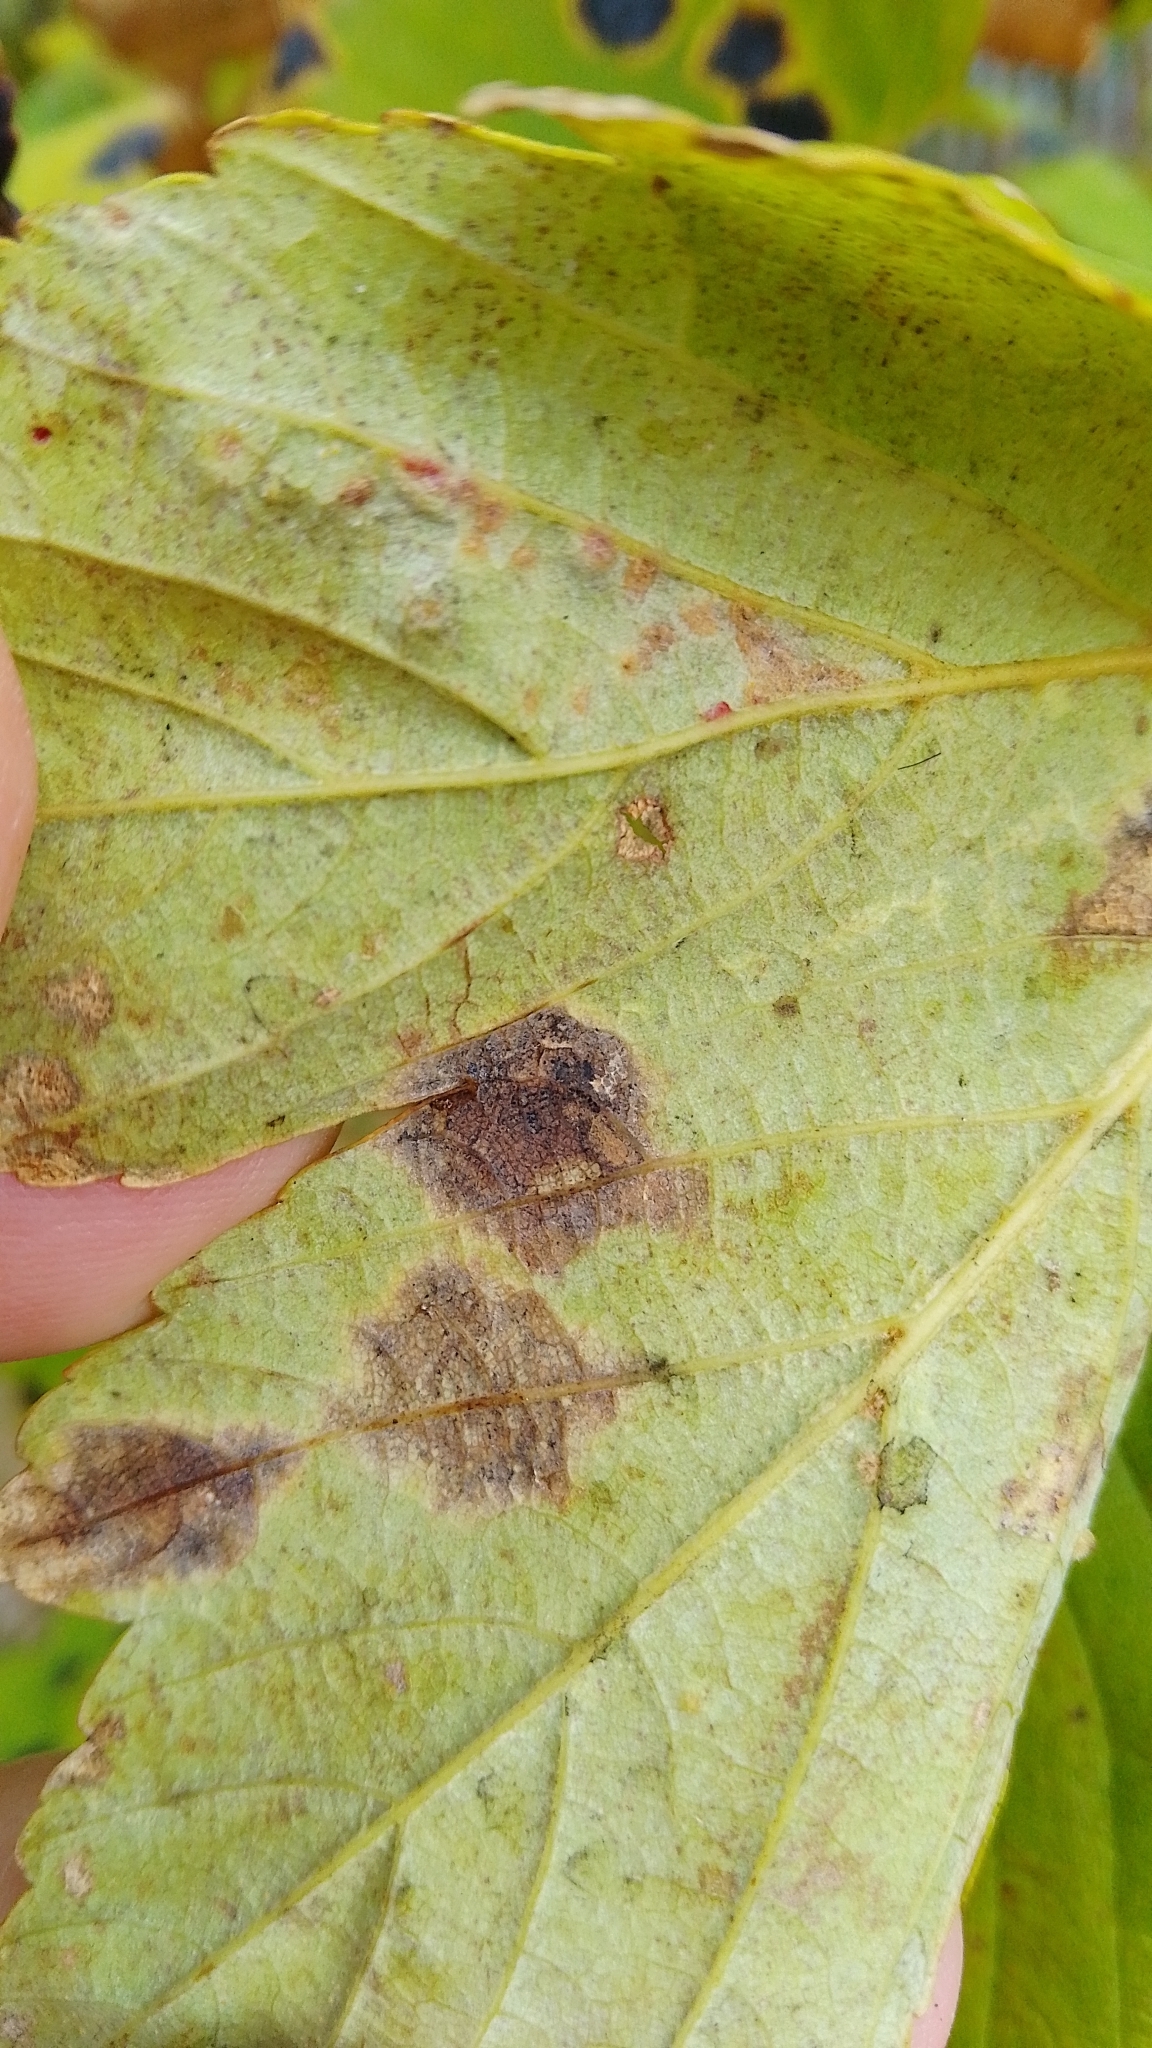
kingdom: Animalia
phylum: Arthropoda
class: Arachnida
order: Trombidiformes
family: Eriophyidae
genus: Aceria
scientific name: Aceria cephaloneus
